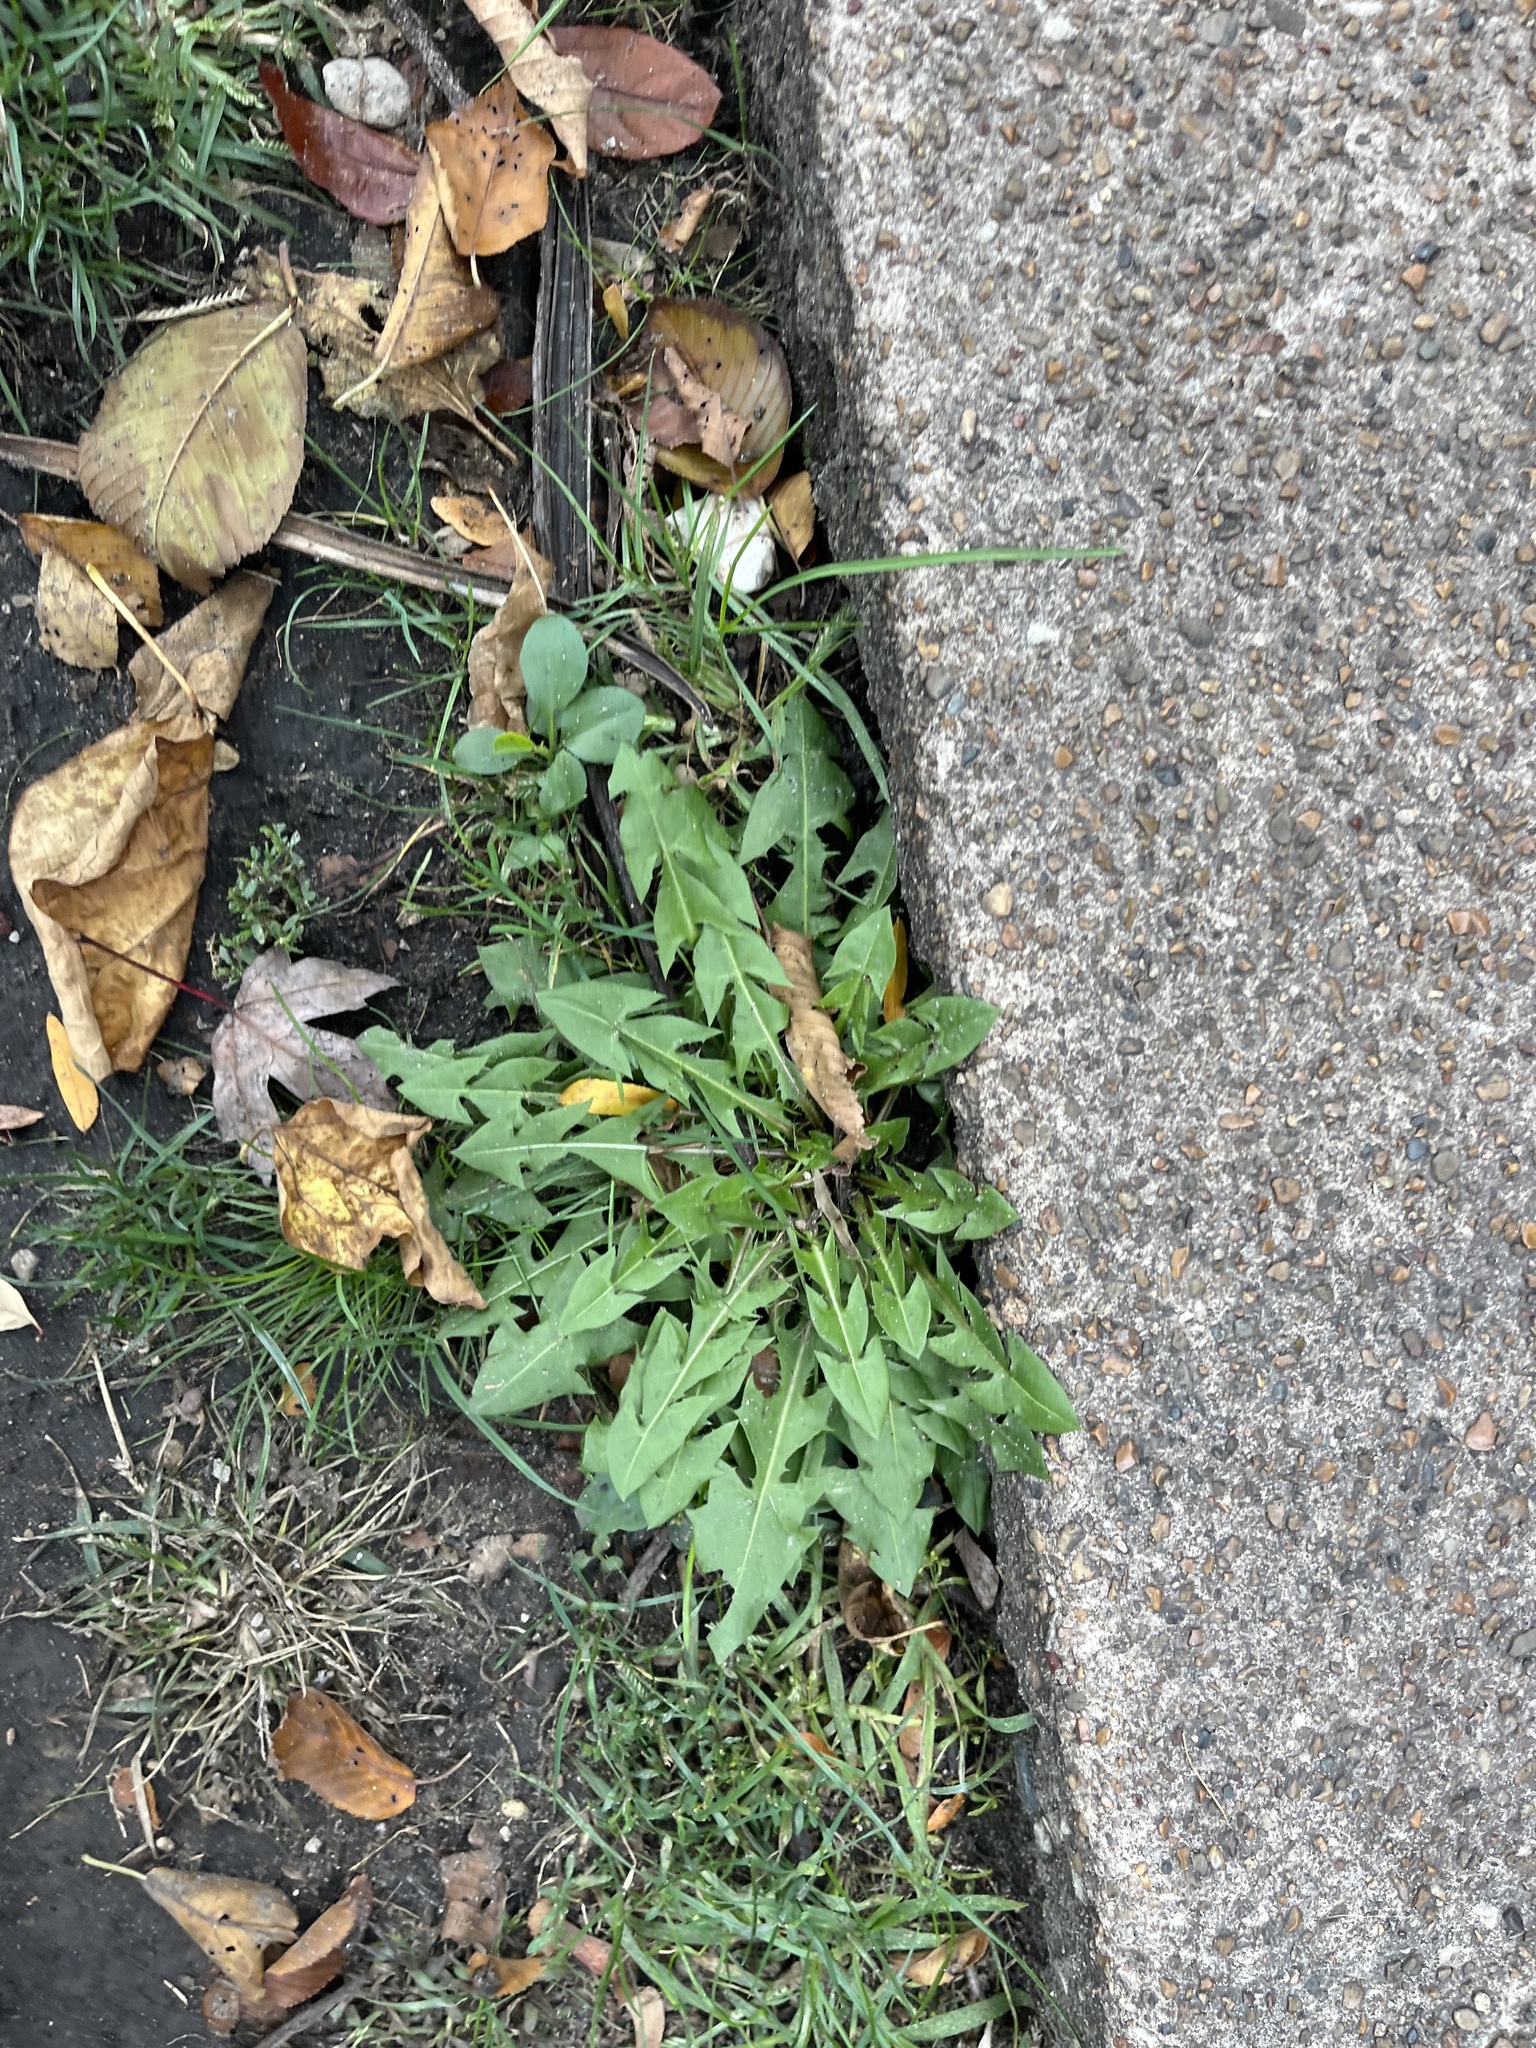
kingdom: Plantae
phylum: Tracheophyta
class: Magnoliopsida
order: Asterales
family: Asteraceae
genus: Taraxacum
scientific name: Taraxacum officinale
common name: Common dandelion
